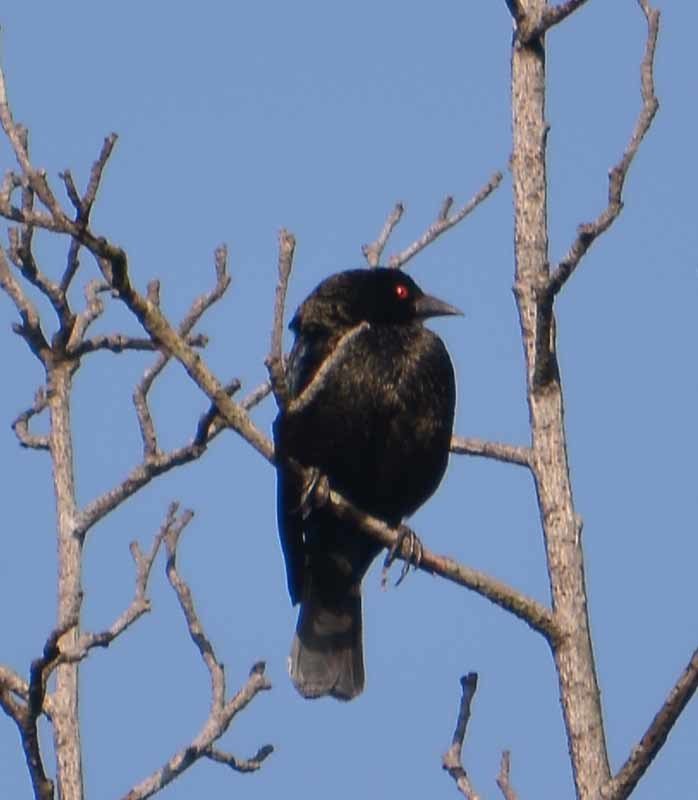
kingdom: Animalia
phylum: Chordata
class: Aves
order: Passeriformes
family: Icteridae
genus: Molothrus
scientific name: Molothrus aeneus
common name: Bronzed cowbird
